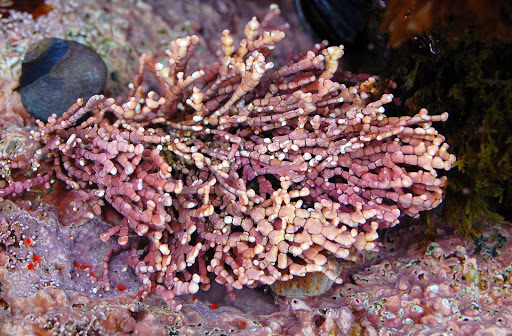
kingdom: Plantae
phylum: Rhodophyta
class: Florideophyceae
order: Corallinales
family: Corallinaceae
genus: Calliarthron
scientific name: Calliarthron tuberculosum
